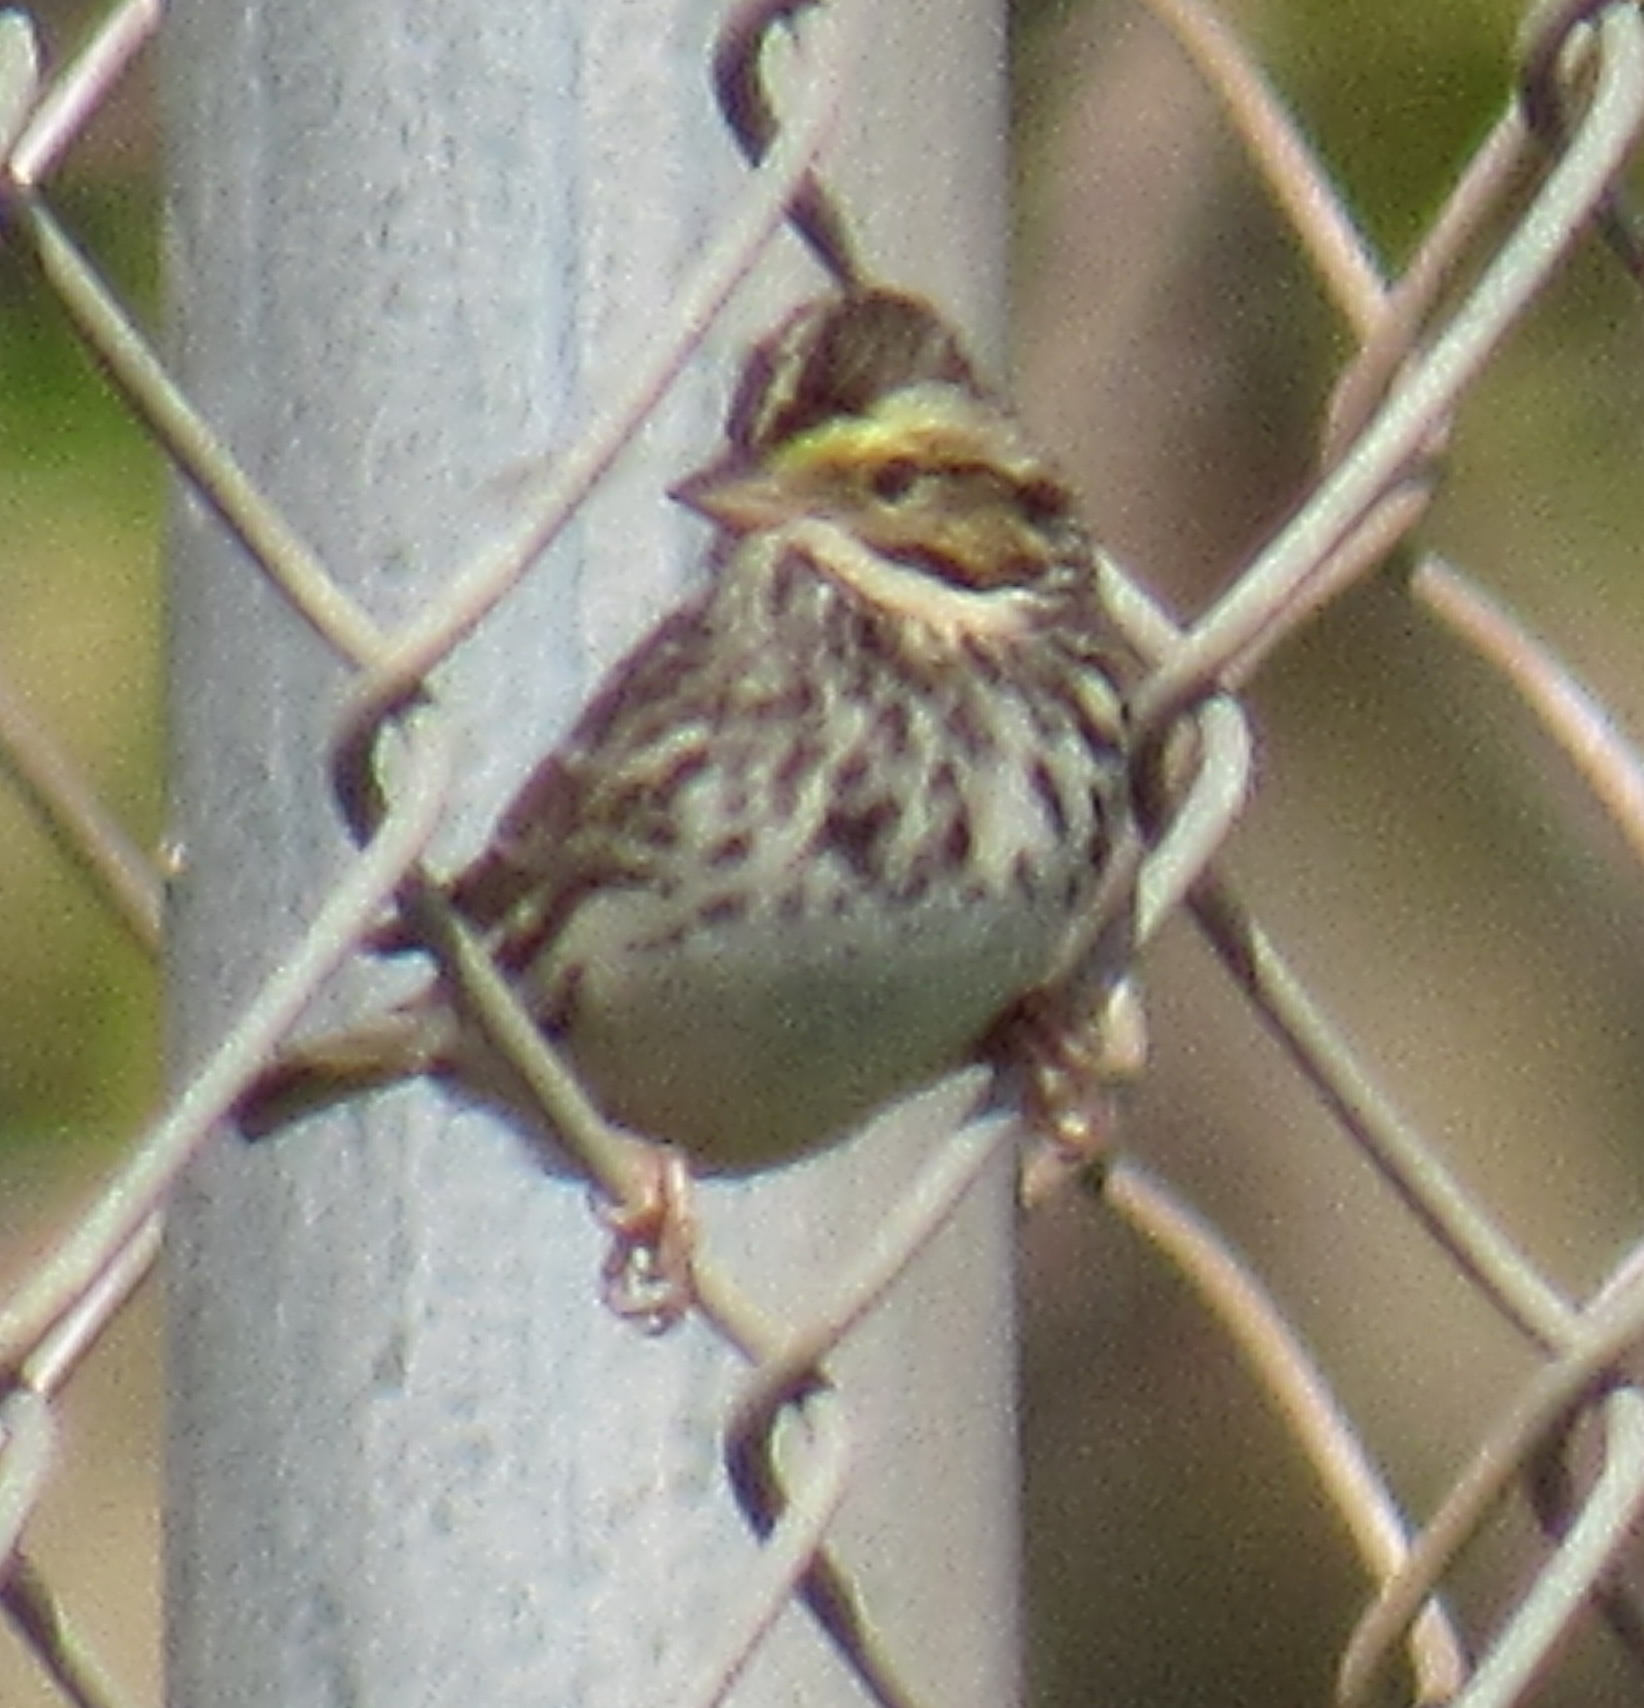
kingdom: Animalia
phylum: Chordata
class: Aves
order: Passeriformes
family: Passerellidae
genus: Passerculus
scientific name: Passerculus sandwichensis
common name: Savannah sparrow
